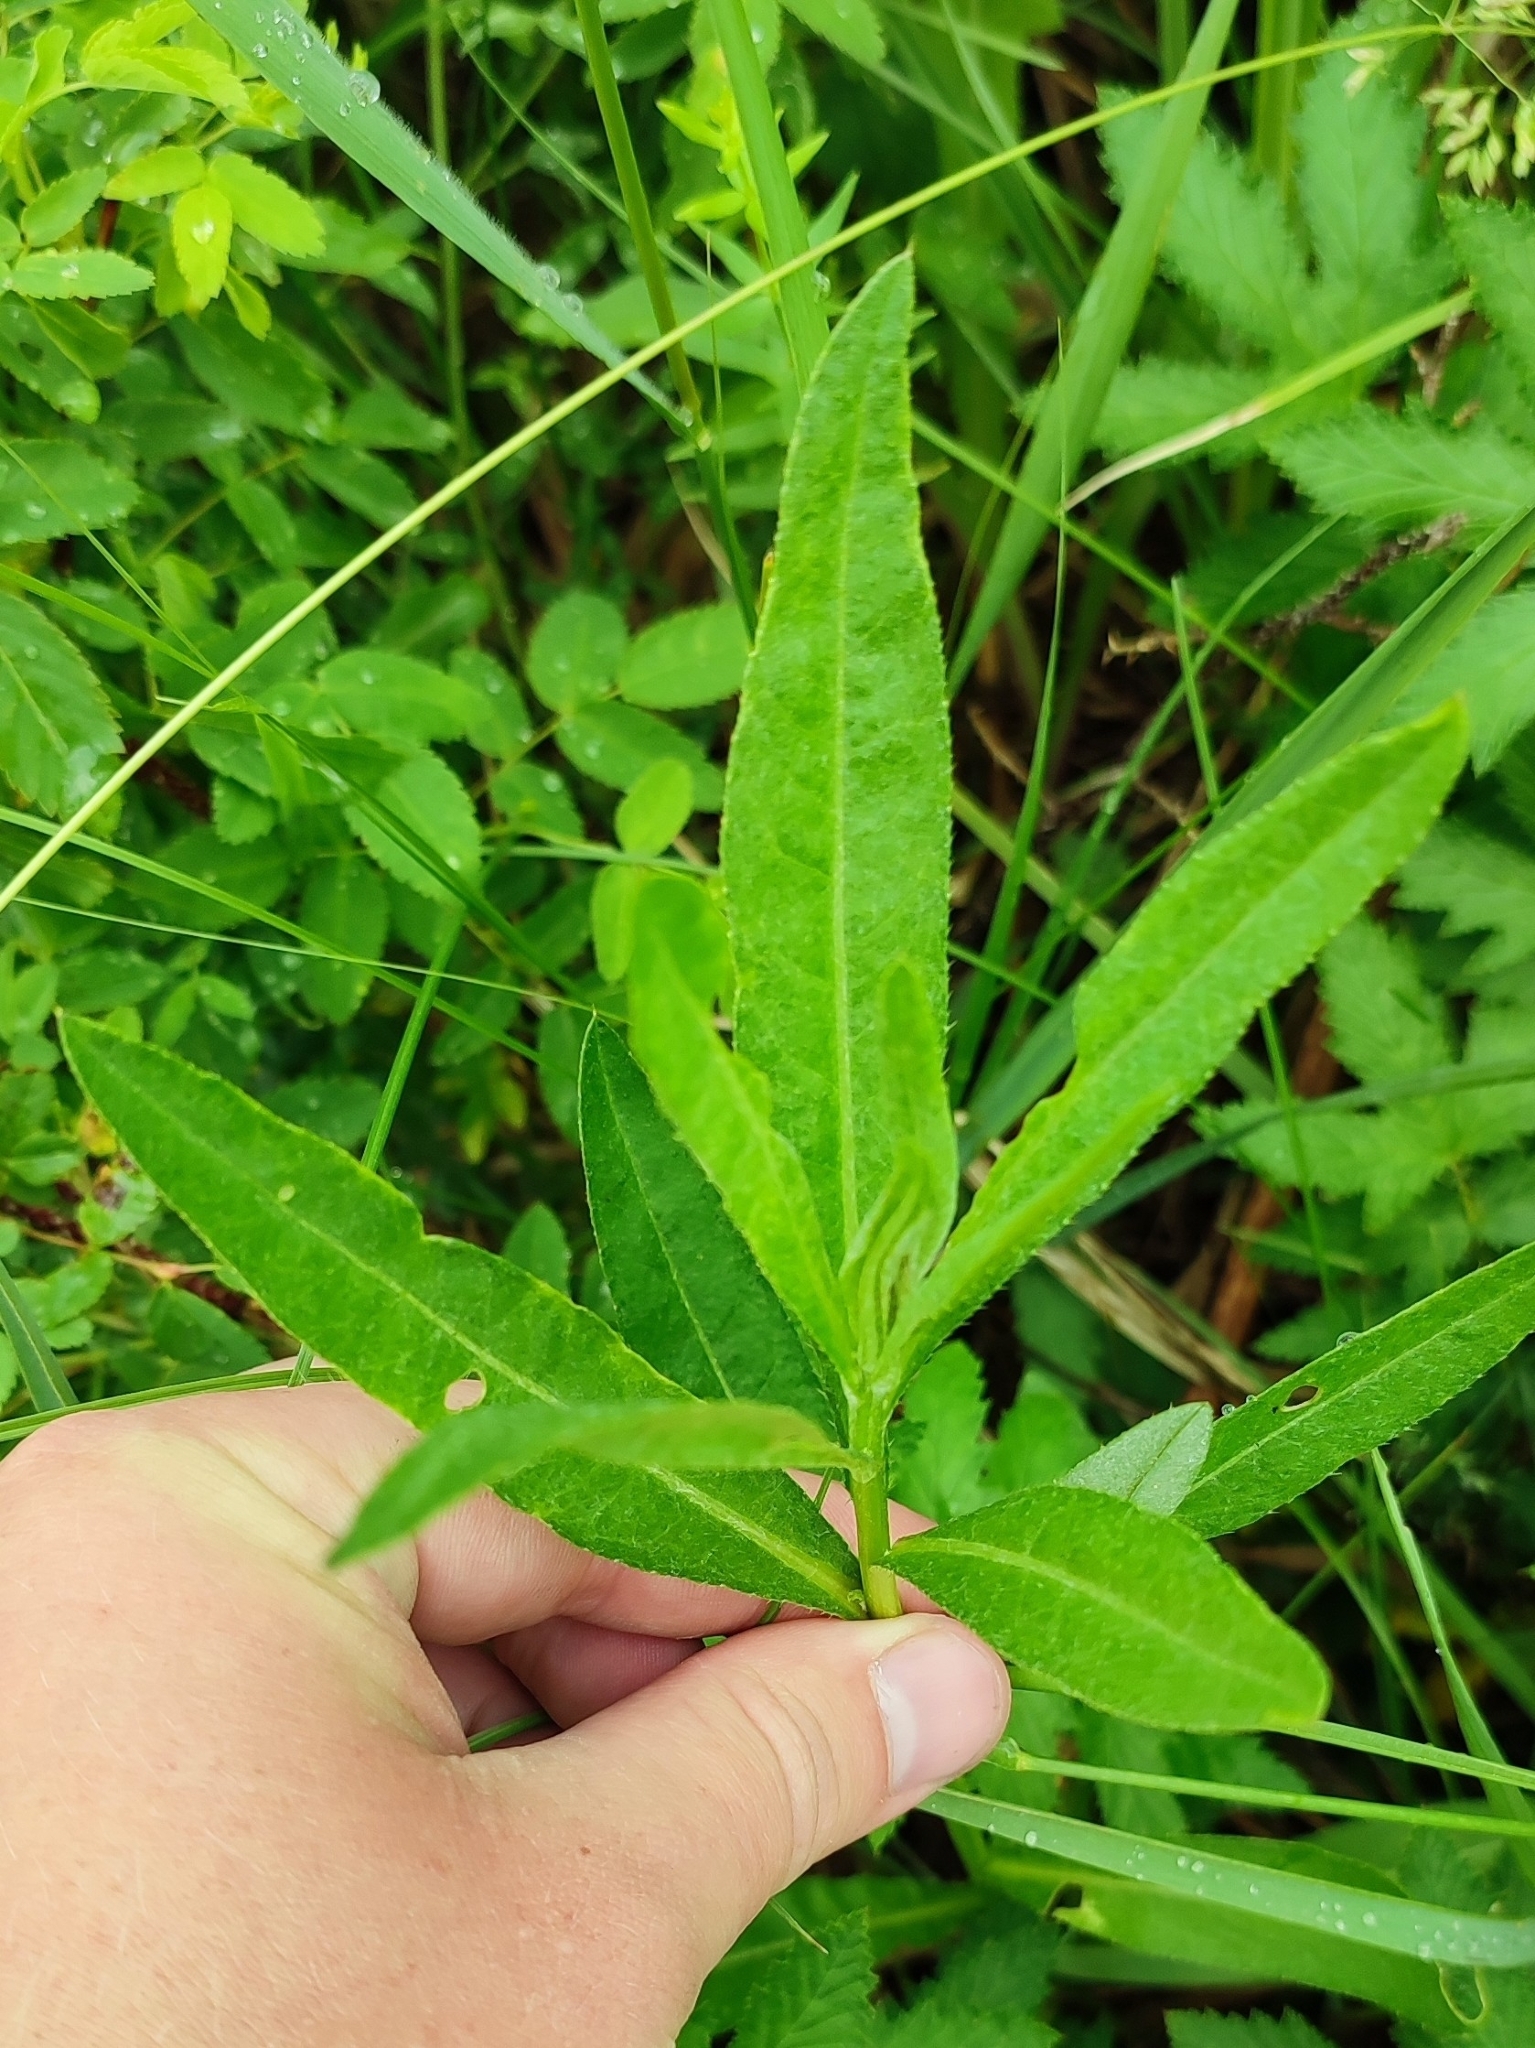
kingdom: Plantae
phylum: Tracheophyta
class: Magnoliopsida
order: Asterales
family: Asteraceae
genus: Cirsium
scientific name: Cirsium arvense
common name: Creeping thistle
